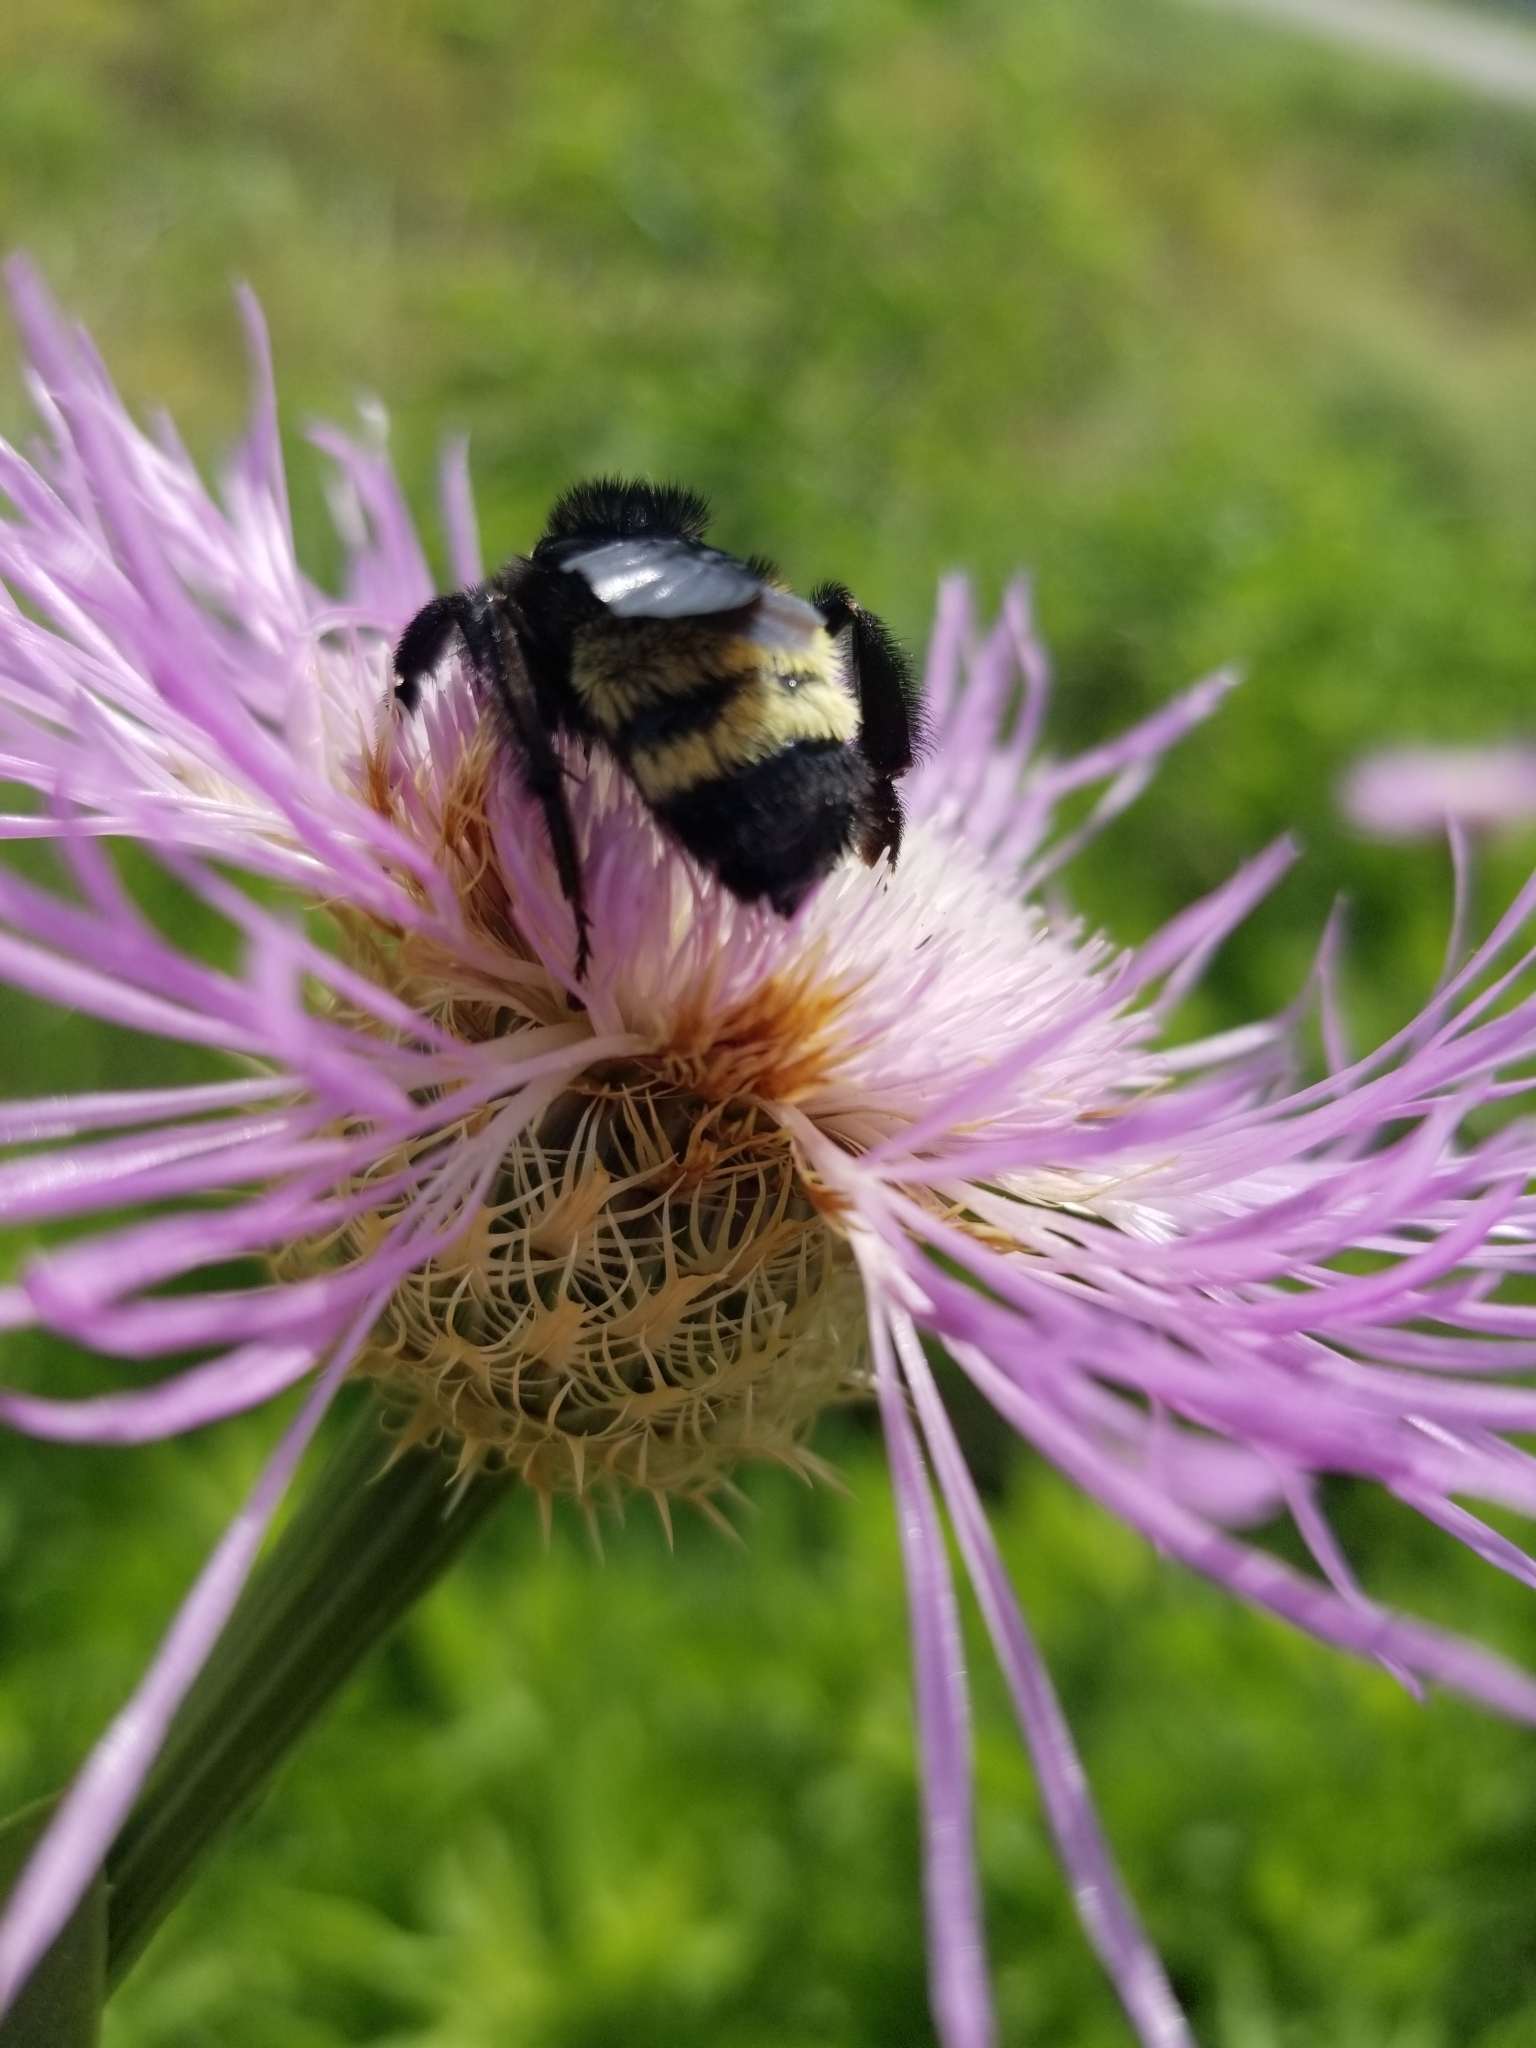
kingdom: Animalia
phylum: Arthropoda
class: Insecta
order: Hymenoptera
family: Apidae
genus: Bombus
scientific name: Bombus pensylvanicus
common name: Bumble bee
